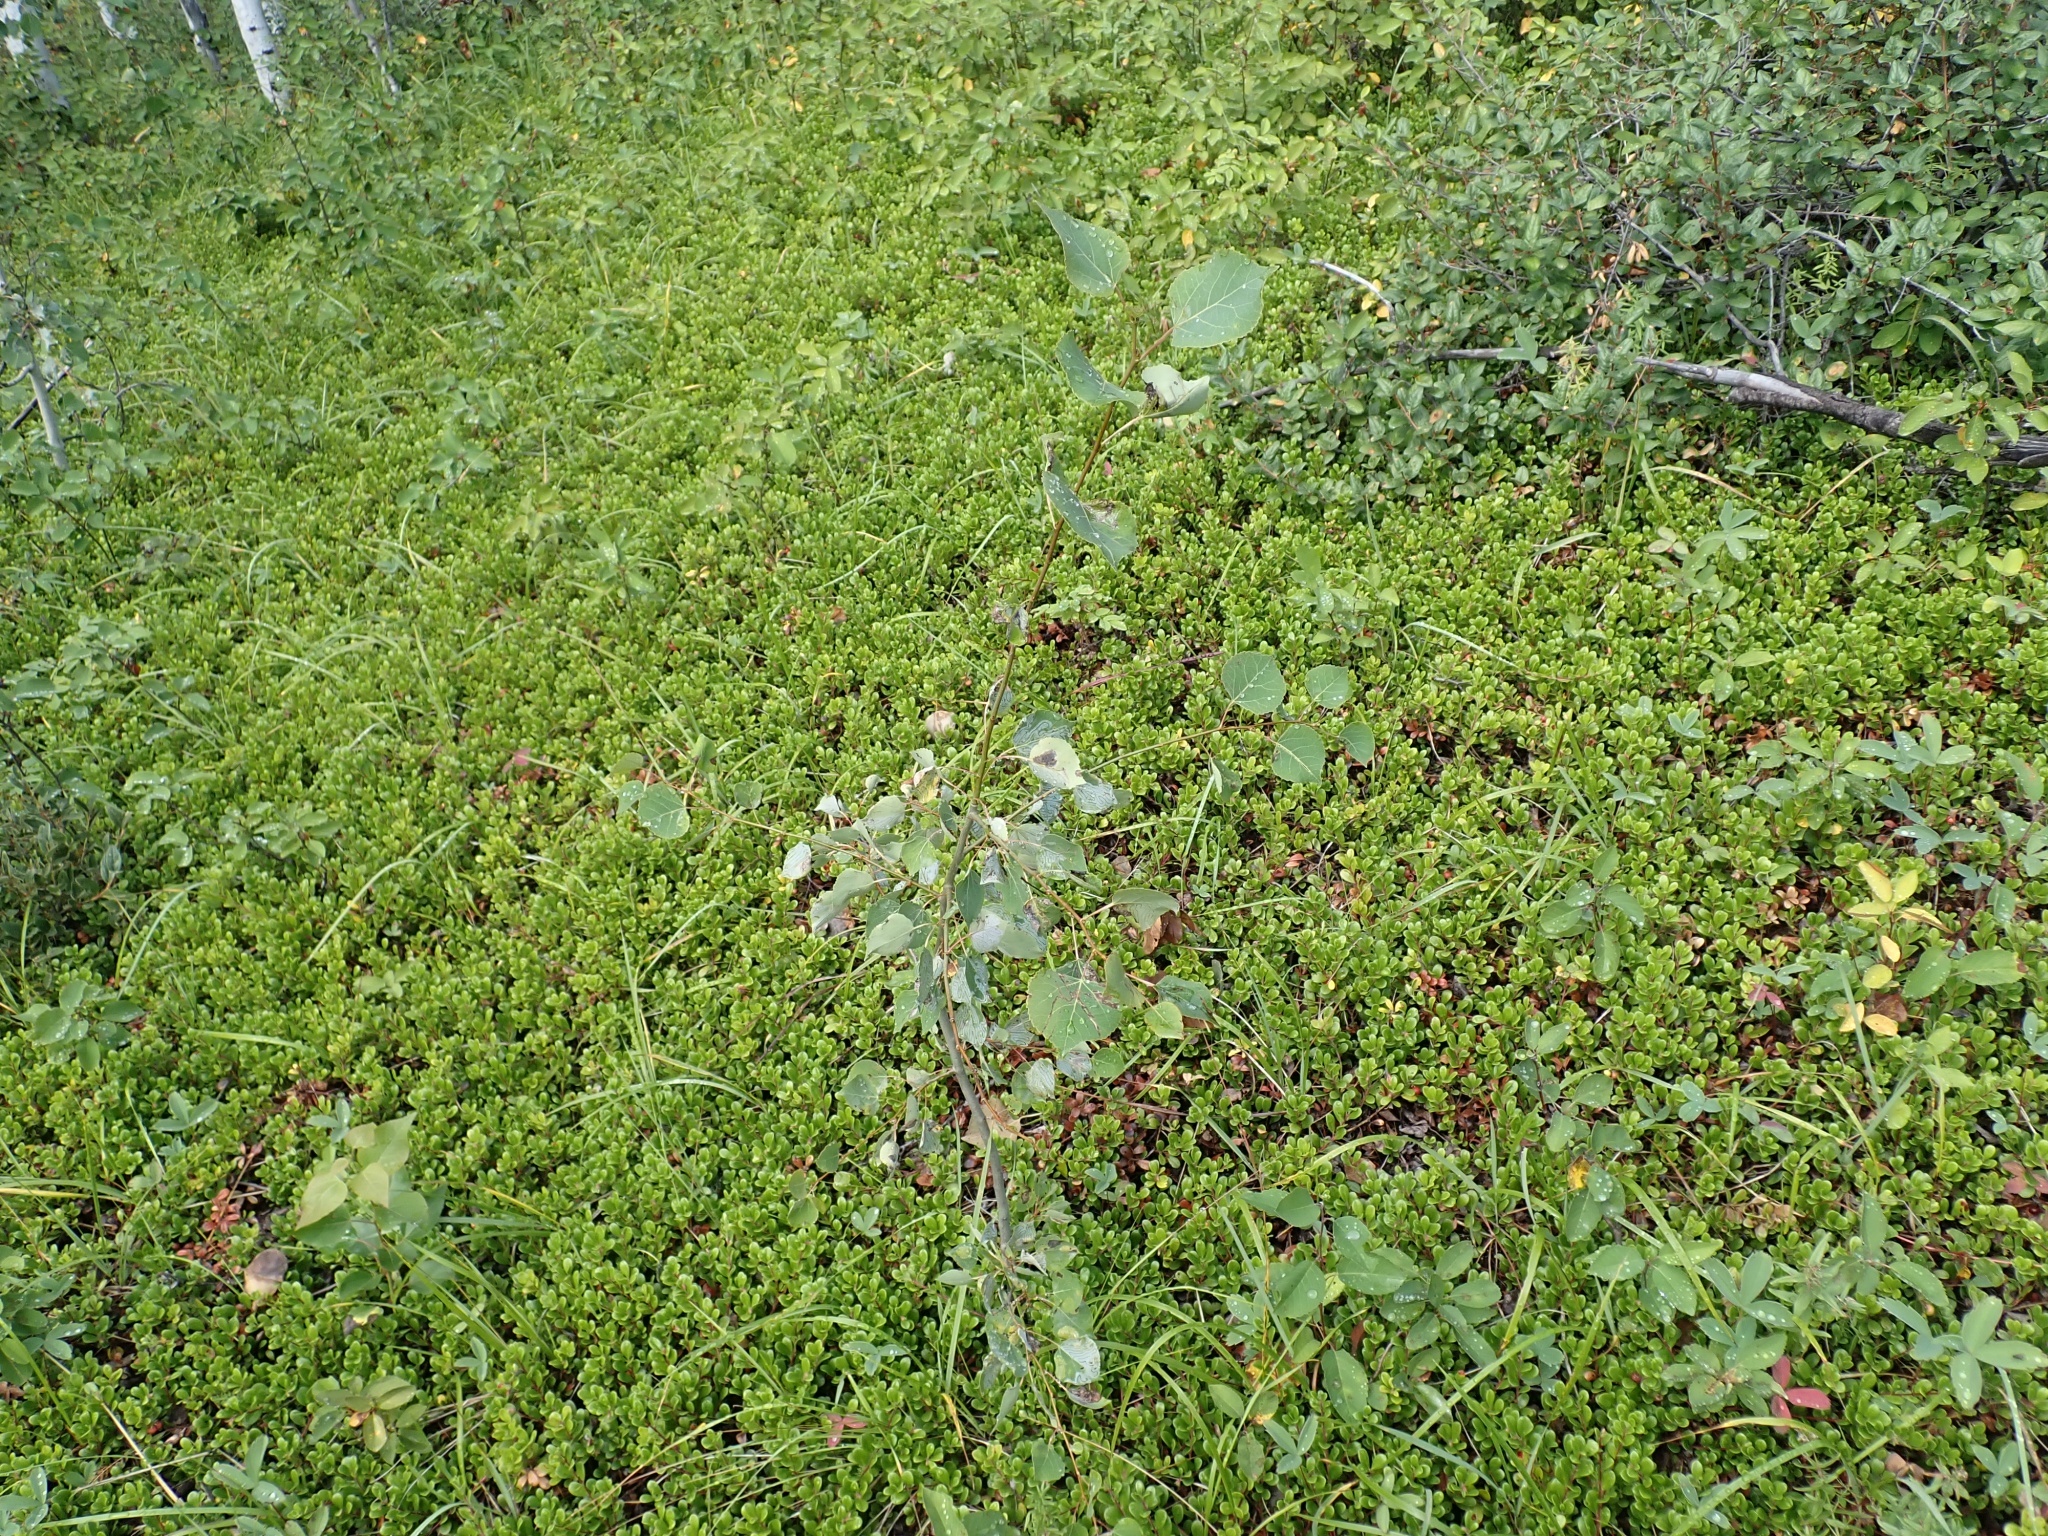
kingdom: Plantae
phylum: Tracheophyta
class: Magnoliopsida
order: Malpighiales
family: Salicaceae
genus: Populus
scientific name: Populus tremuloides
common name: Quaking aspen
